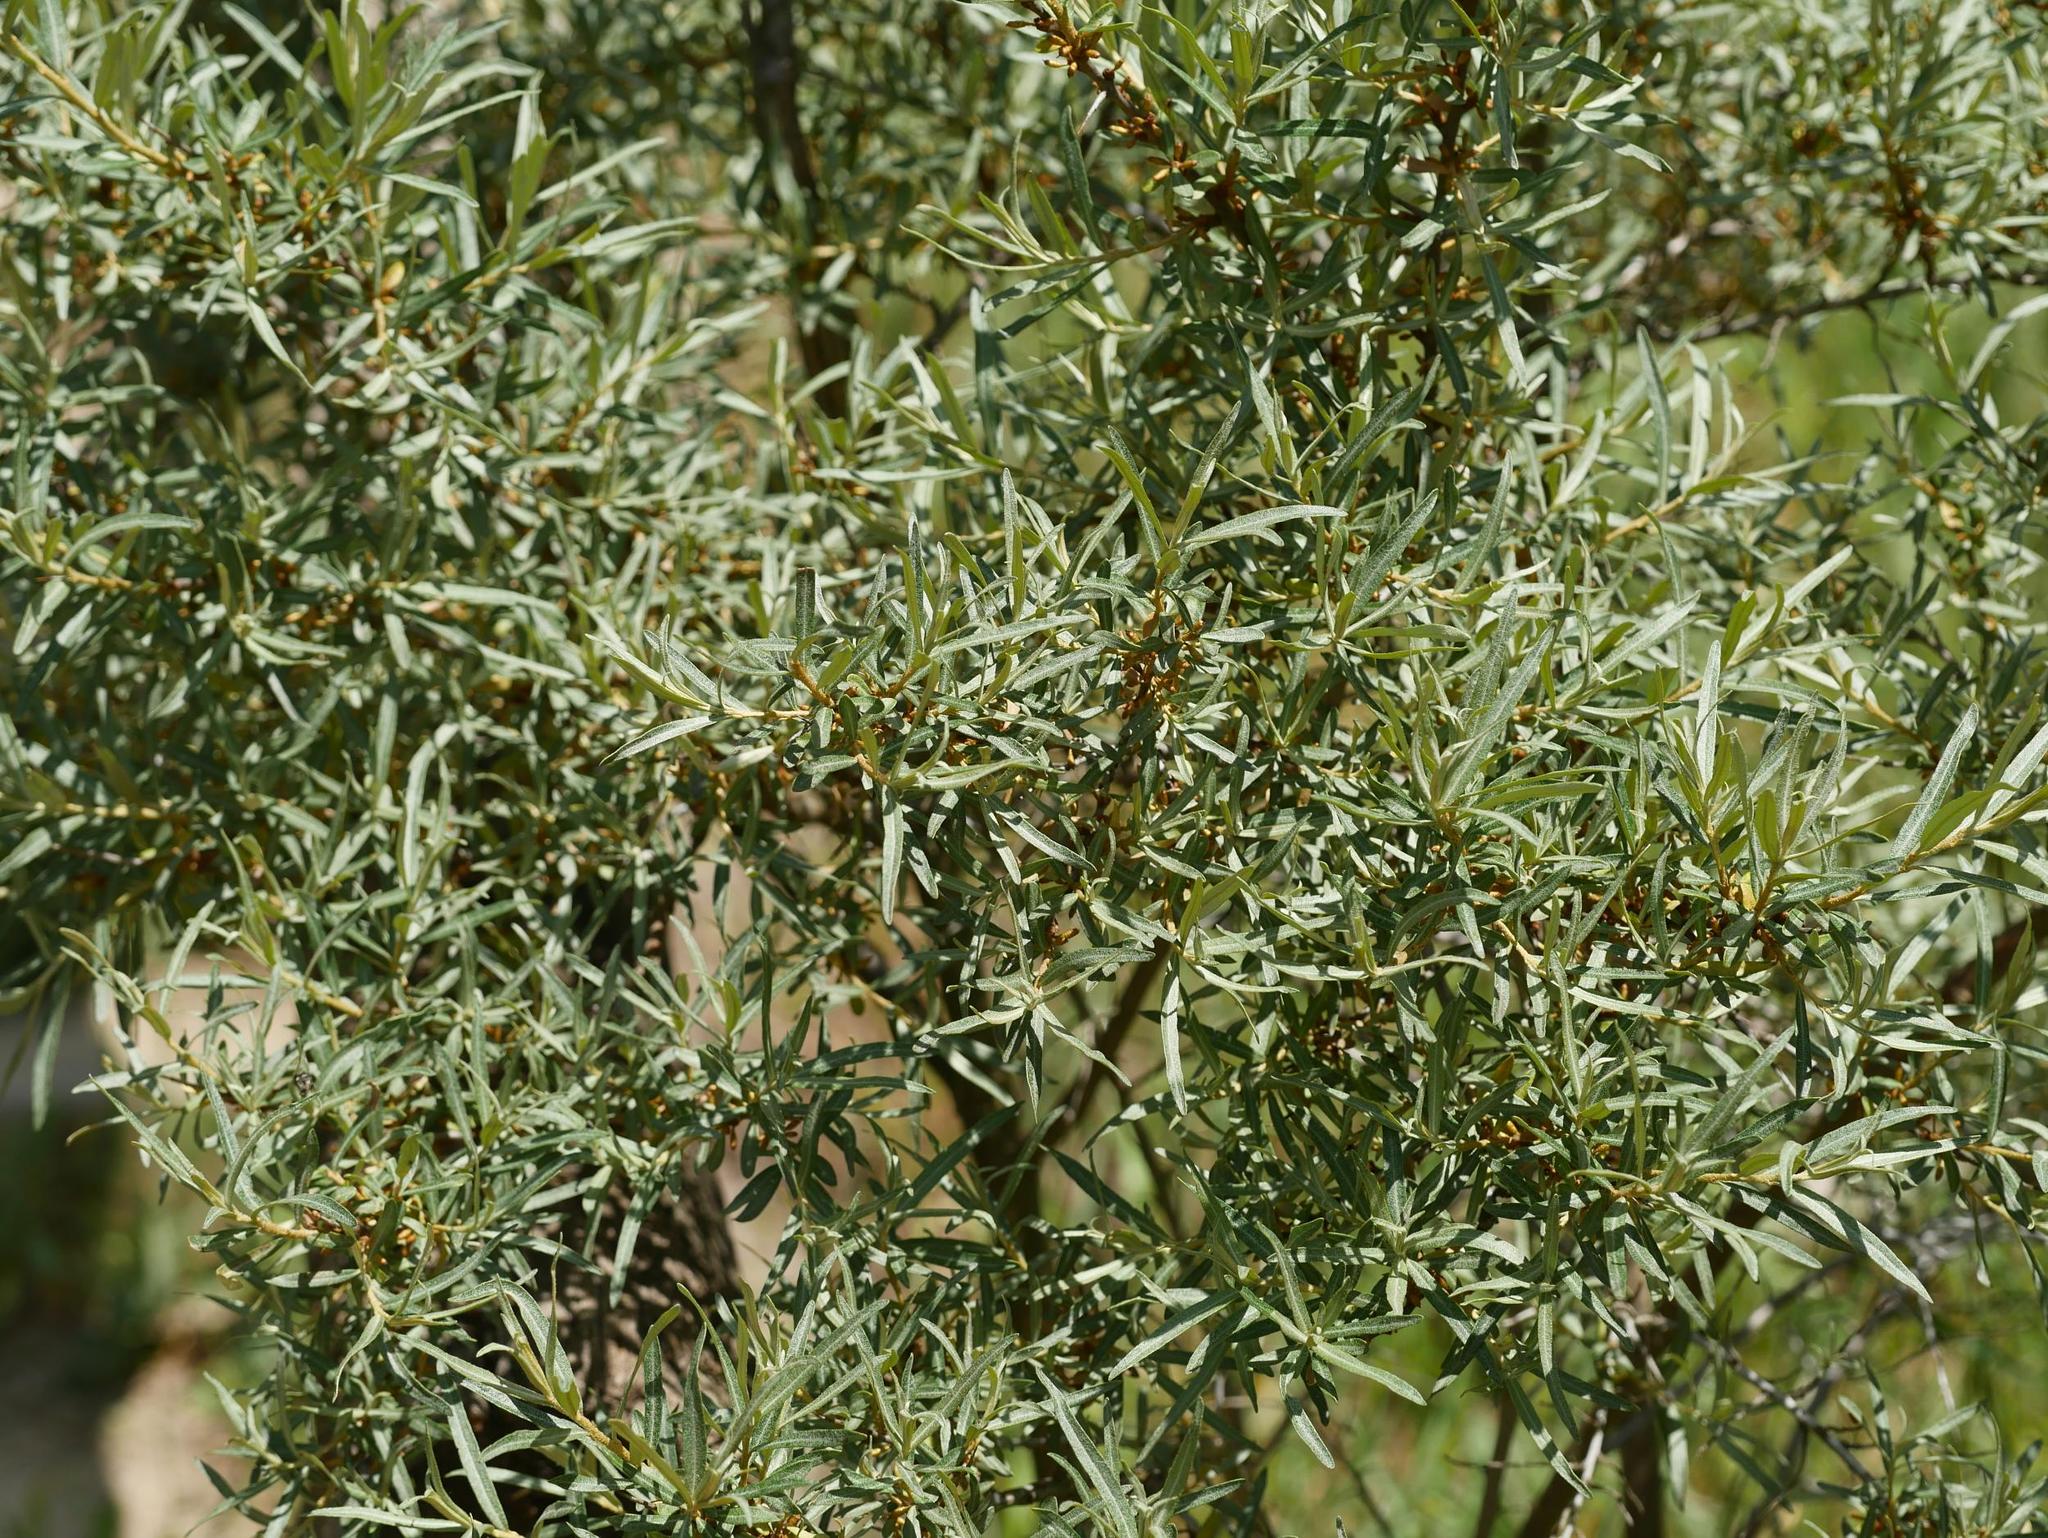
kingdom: Plantae
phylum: Tracheophyta
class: Magnoliopsida
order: Rosales
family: Elaeagnaceae
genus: Hippophae
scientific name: Hippophae rhamnoides
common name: Sea-buckthorn
